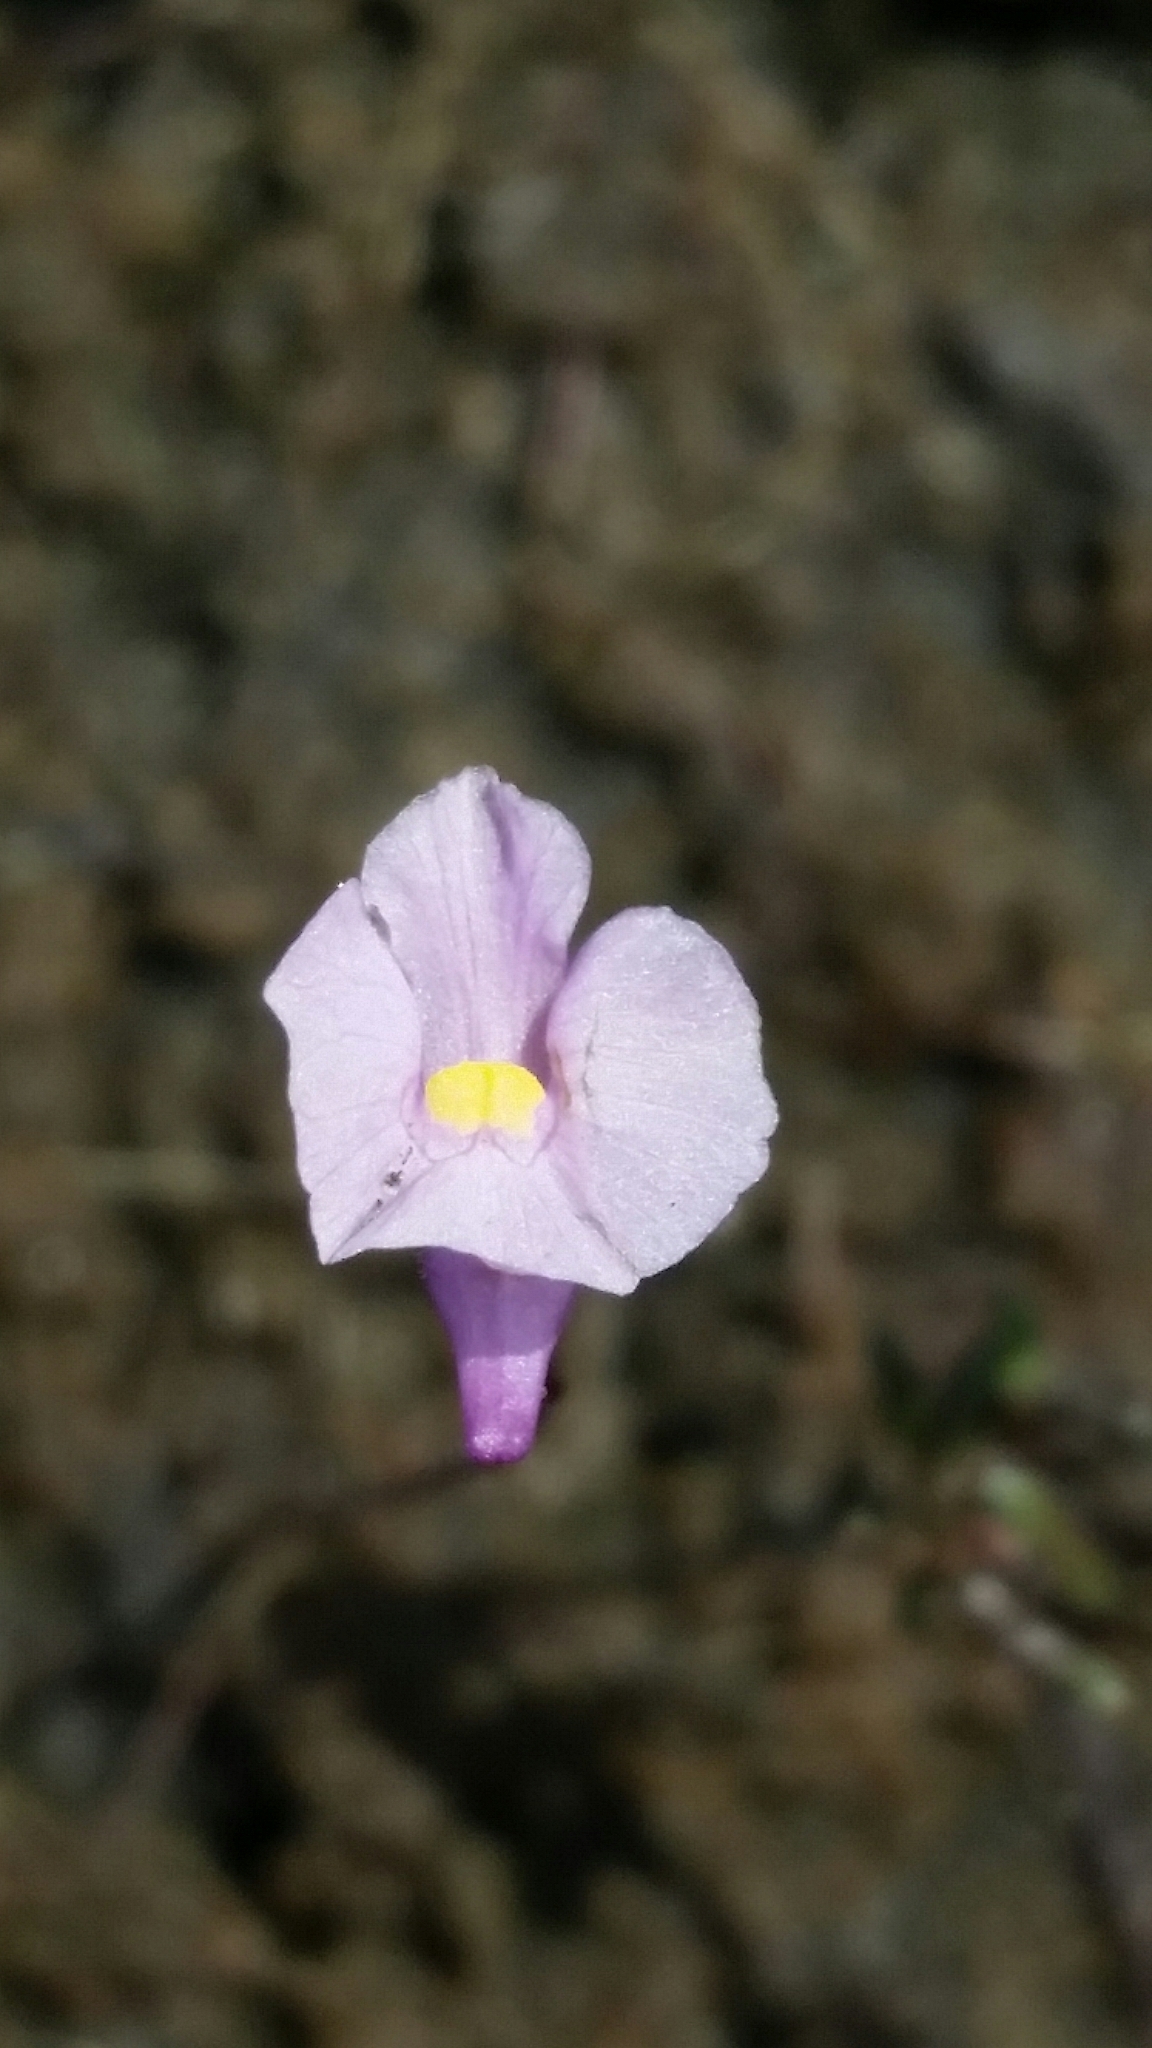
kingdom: Plantae
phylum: Tracheophyta
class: Magnoliopsida
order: Lamiales
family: Lentibulariaceae
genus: Utricularia
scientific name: Utricularia resupinata
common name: Northeastern bladderwort
